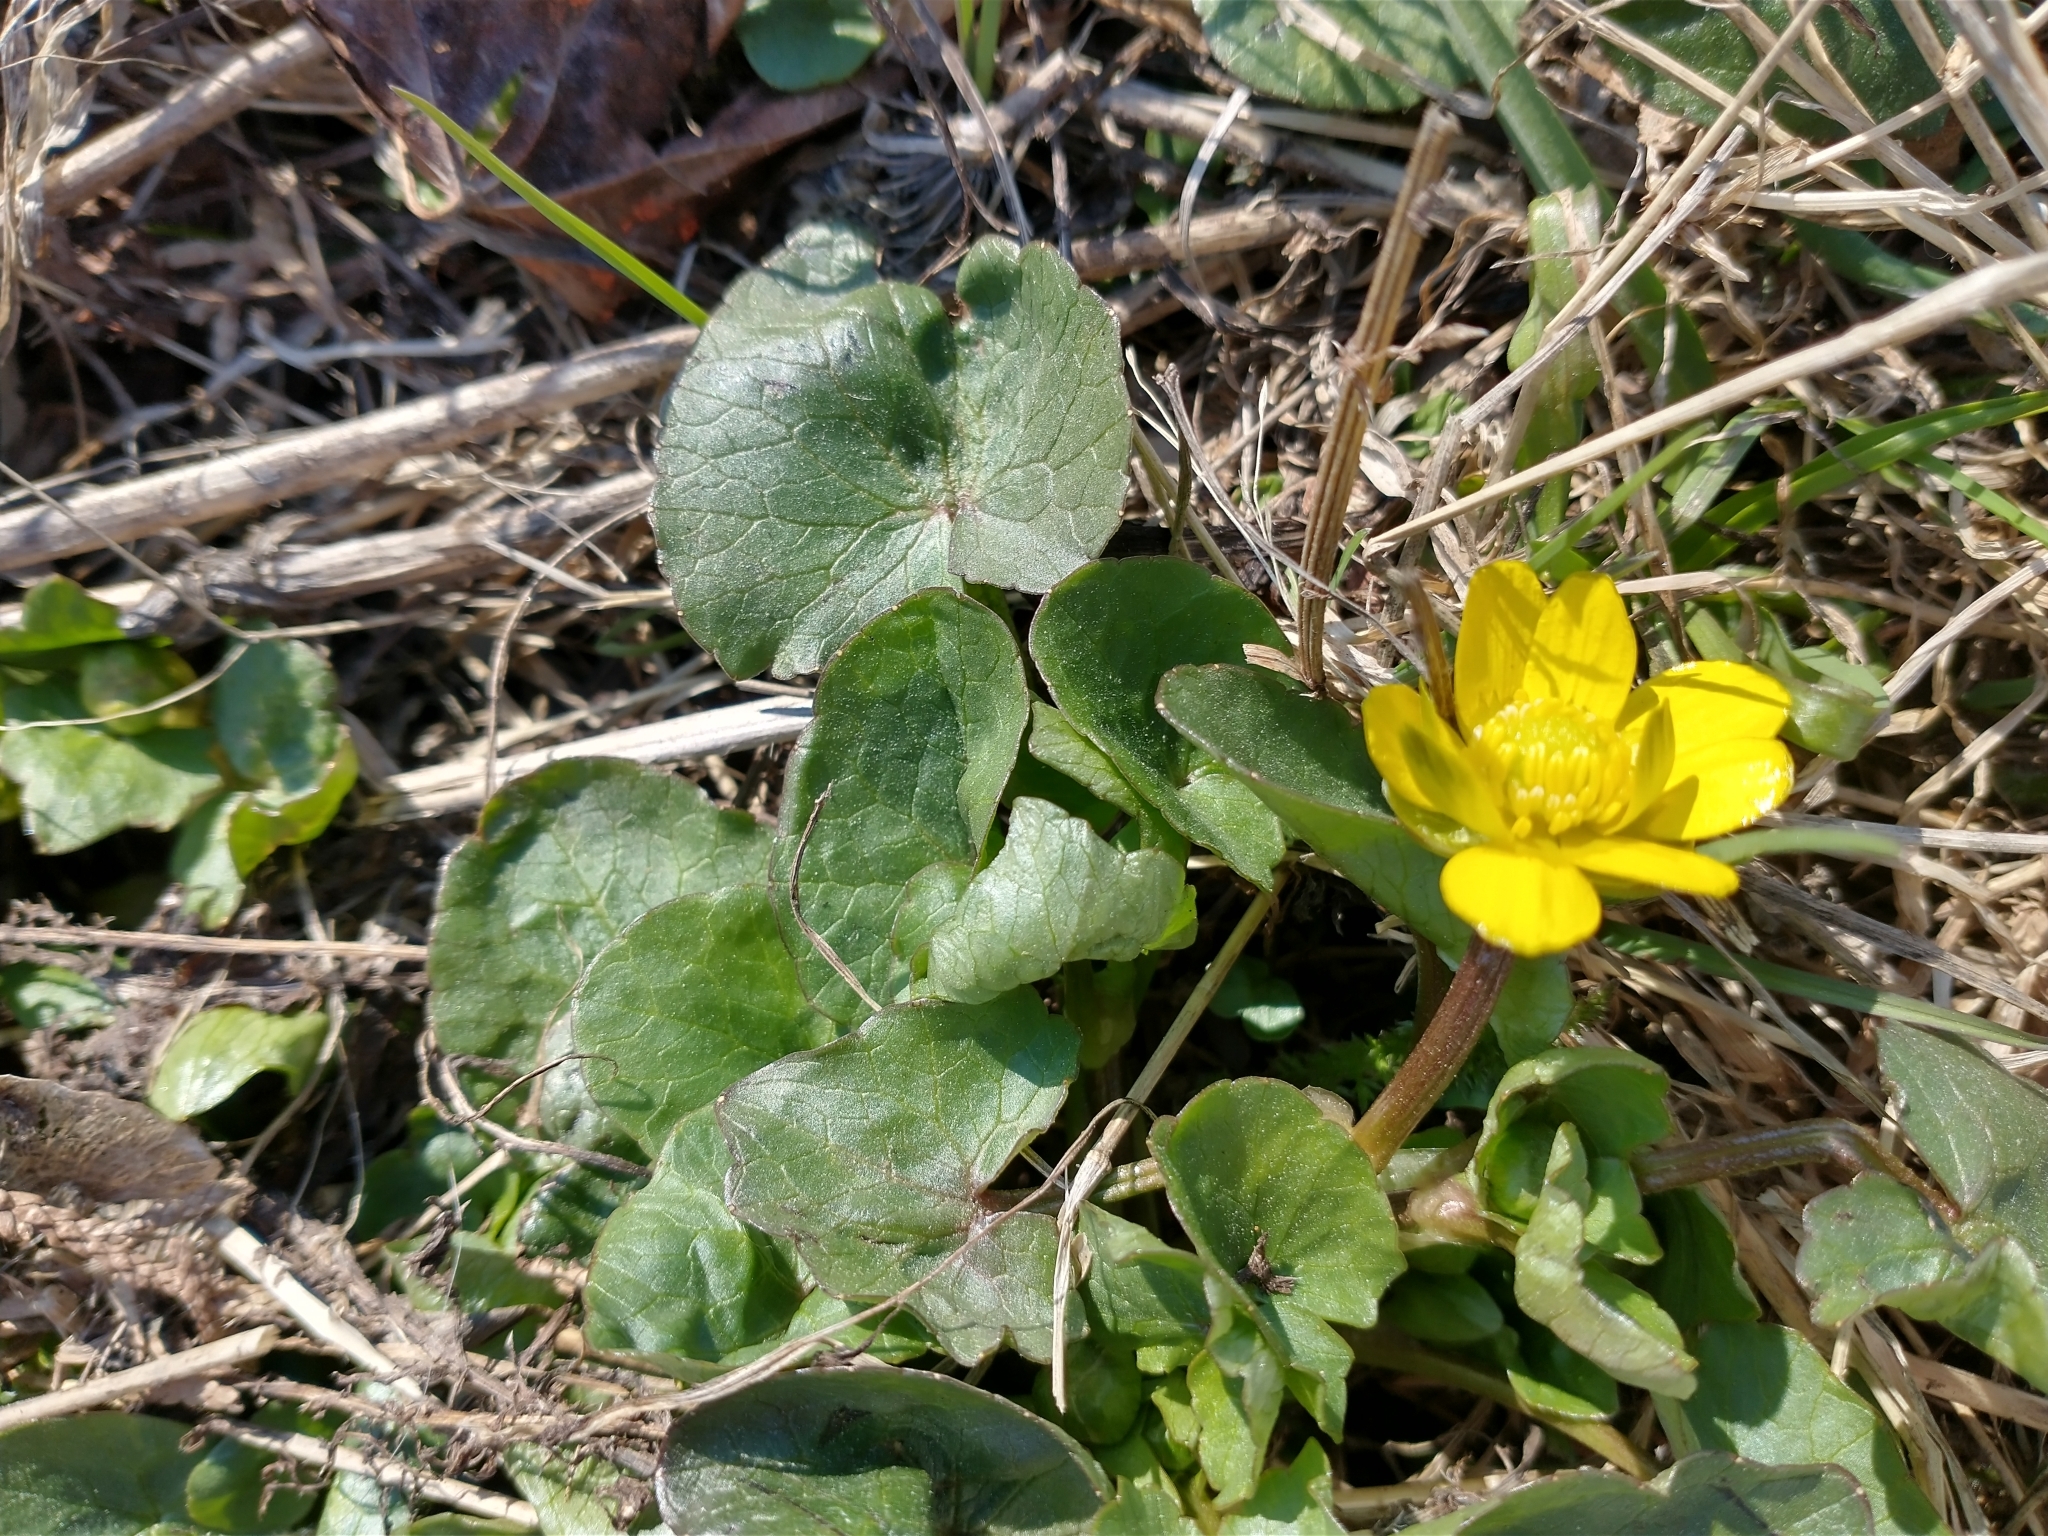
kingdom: Plantae
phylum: Tracheophyta
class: Magnoliopsida
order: Ranunculales
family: Ranunculaceae
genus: Ficaria
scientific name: Ficaria verna
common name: Lesser celandine
